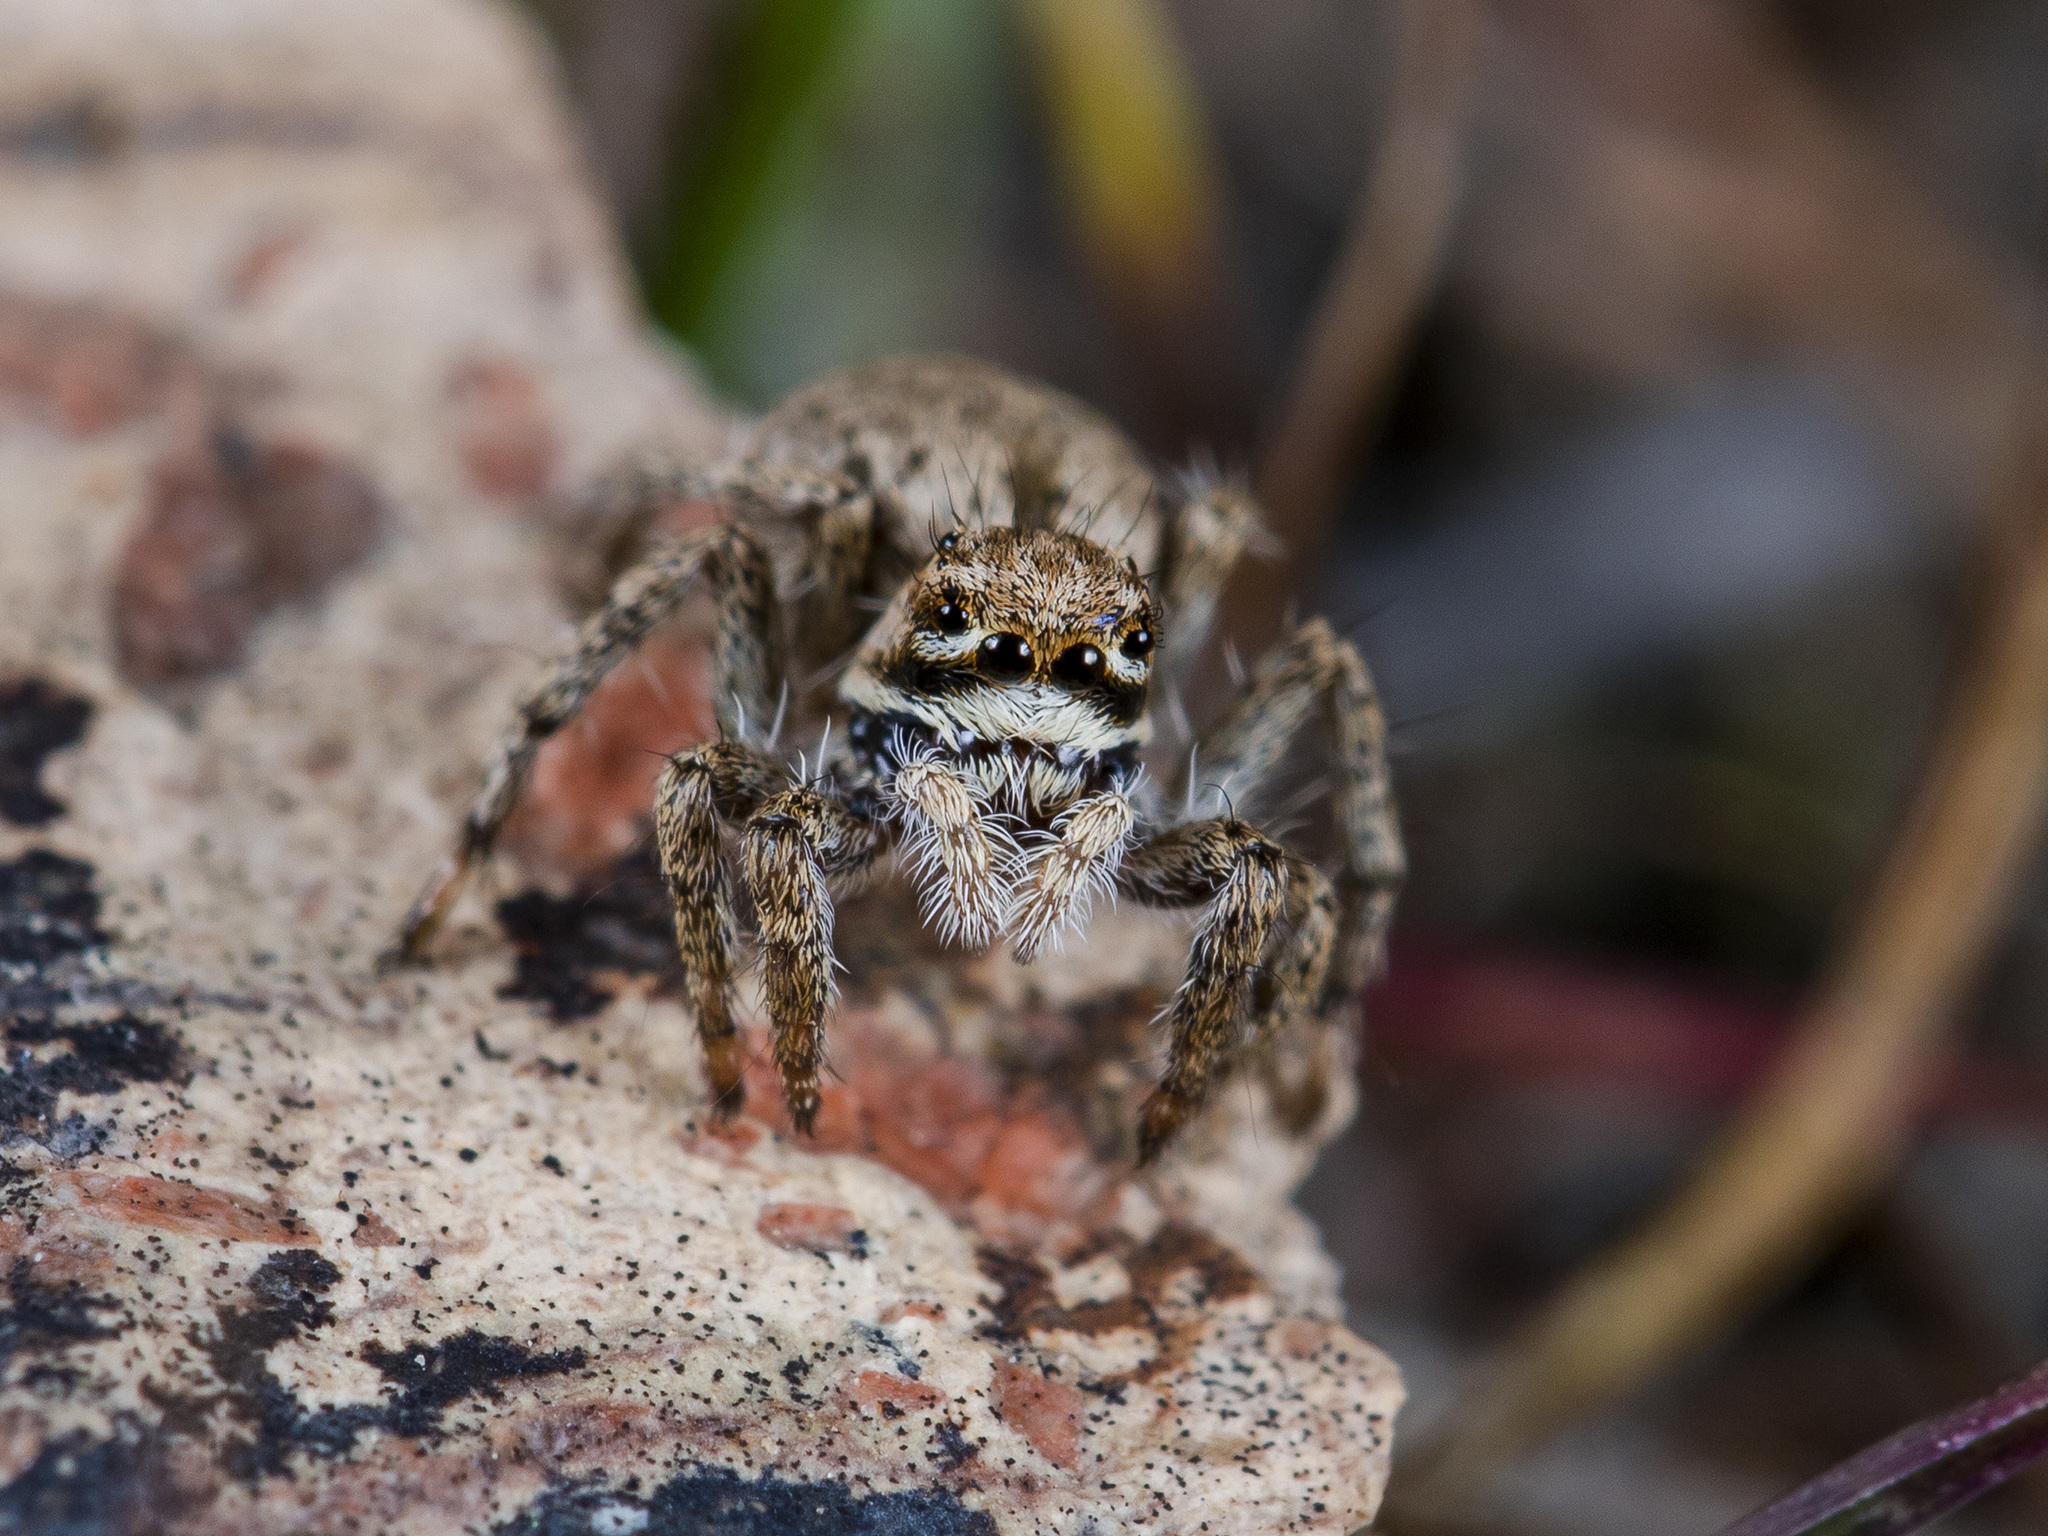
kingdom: Animalia
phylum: Arthropoda
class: Arachnida
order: Araneae
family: Salticidae
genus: Rafalus
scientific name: Rafalus variegatus
